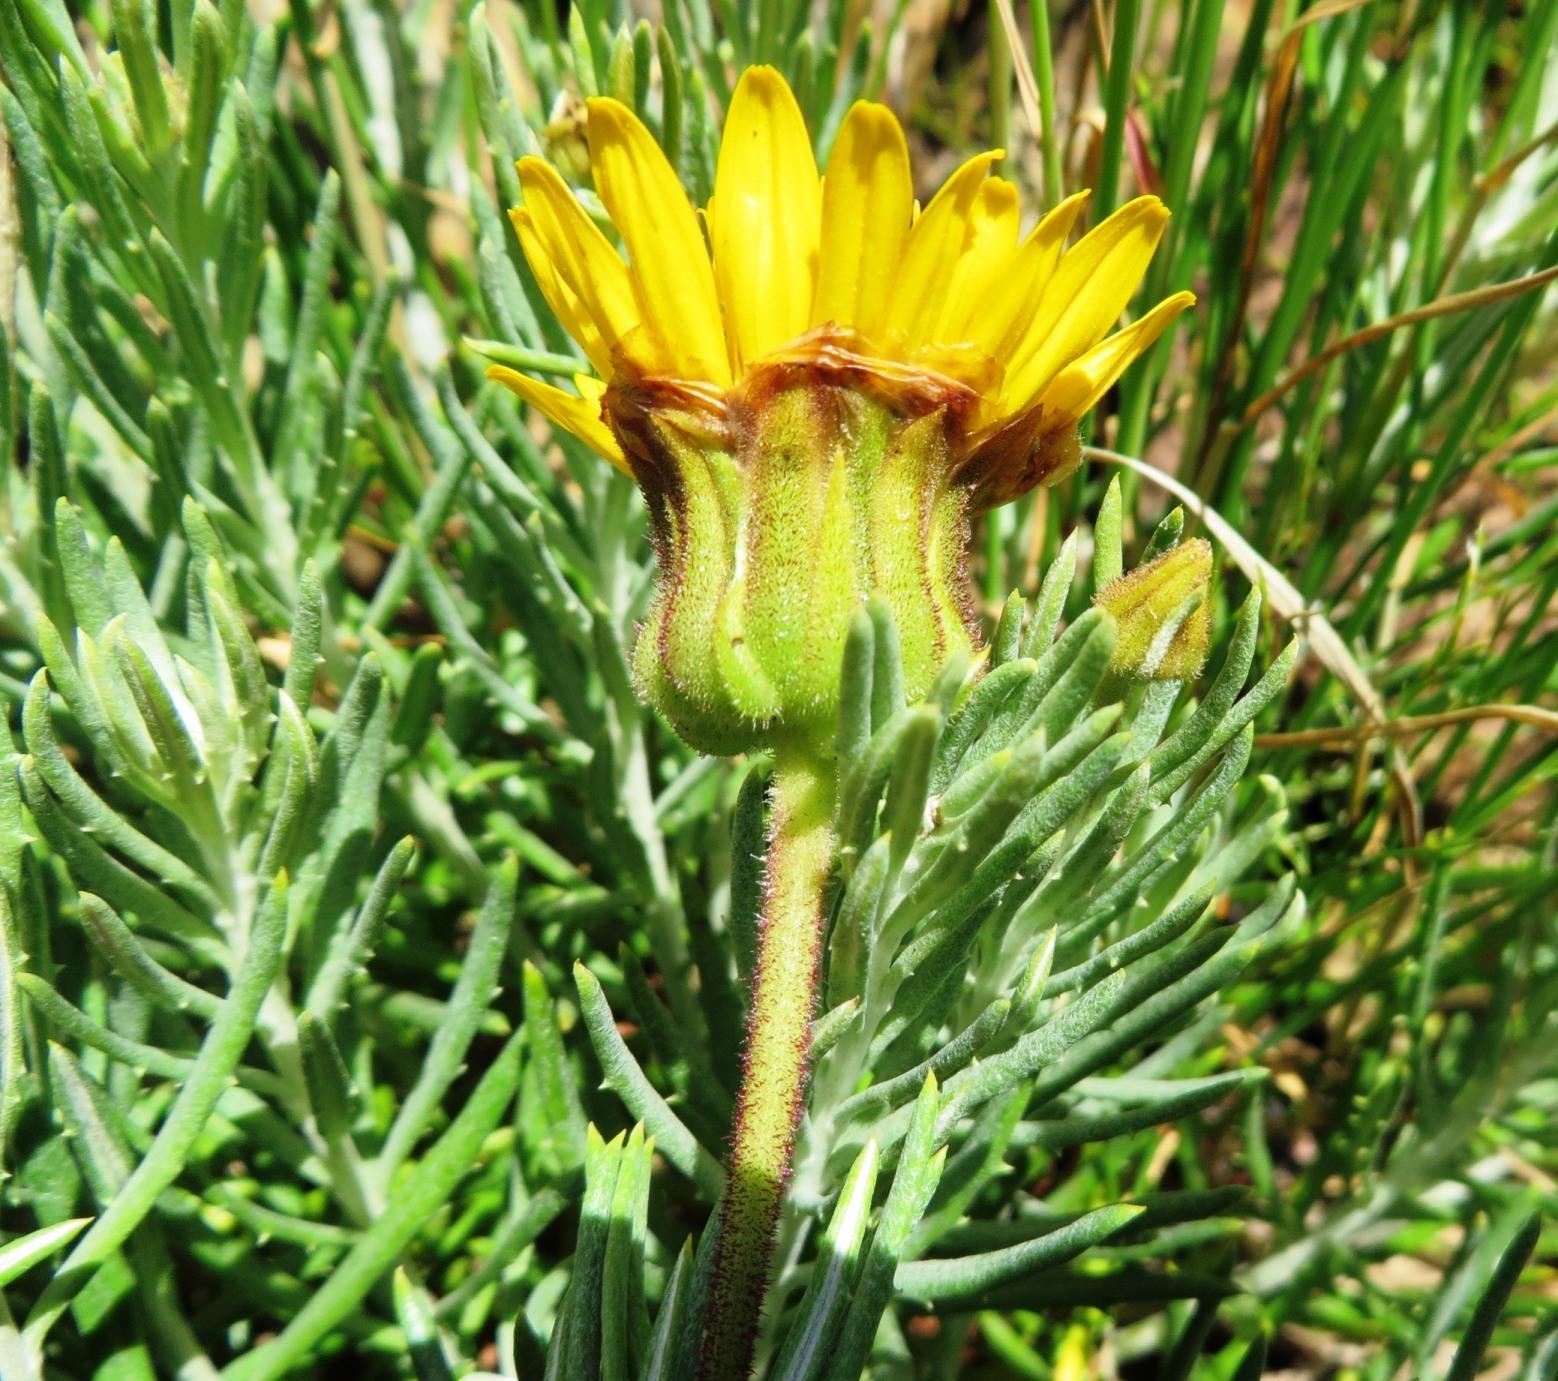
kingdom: Plantae
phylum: Tracheophyta
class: Magnoliopsida
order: Asterales
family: Asteraceae
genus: Heterolepis
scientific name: Heterolepis aliena
